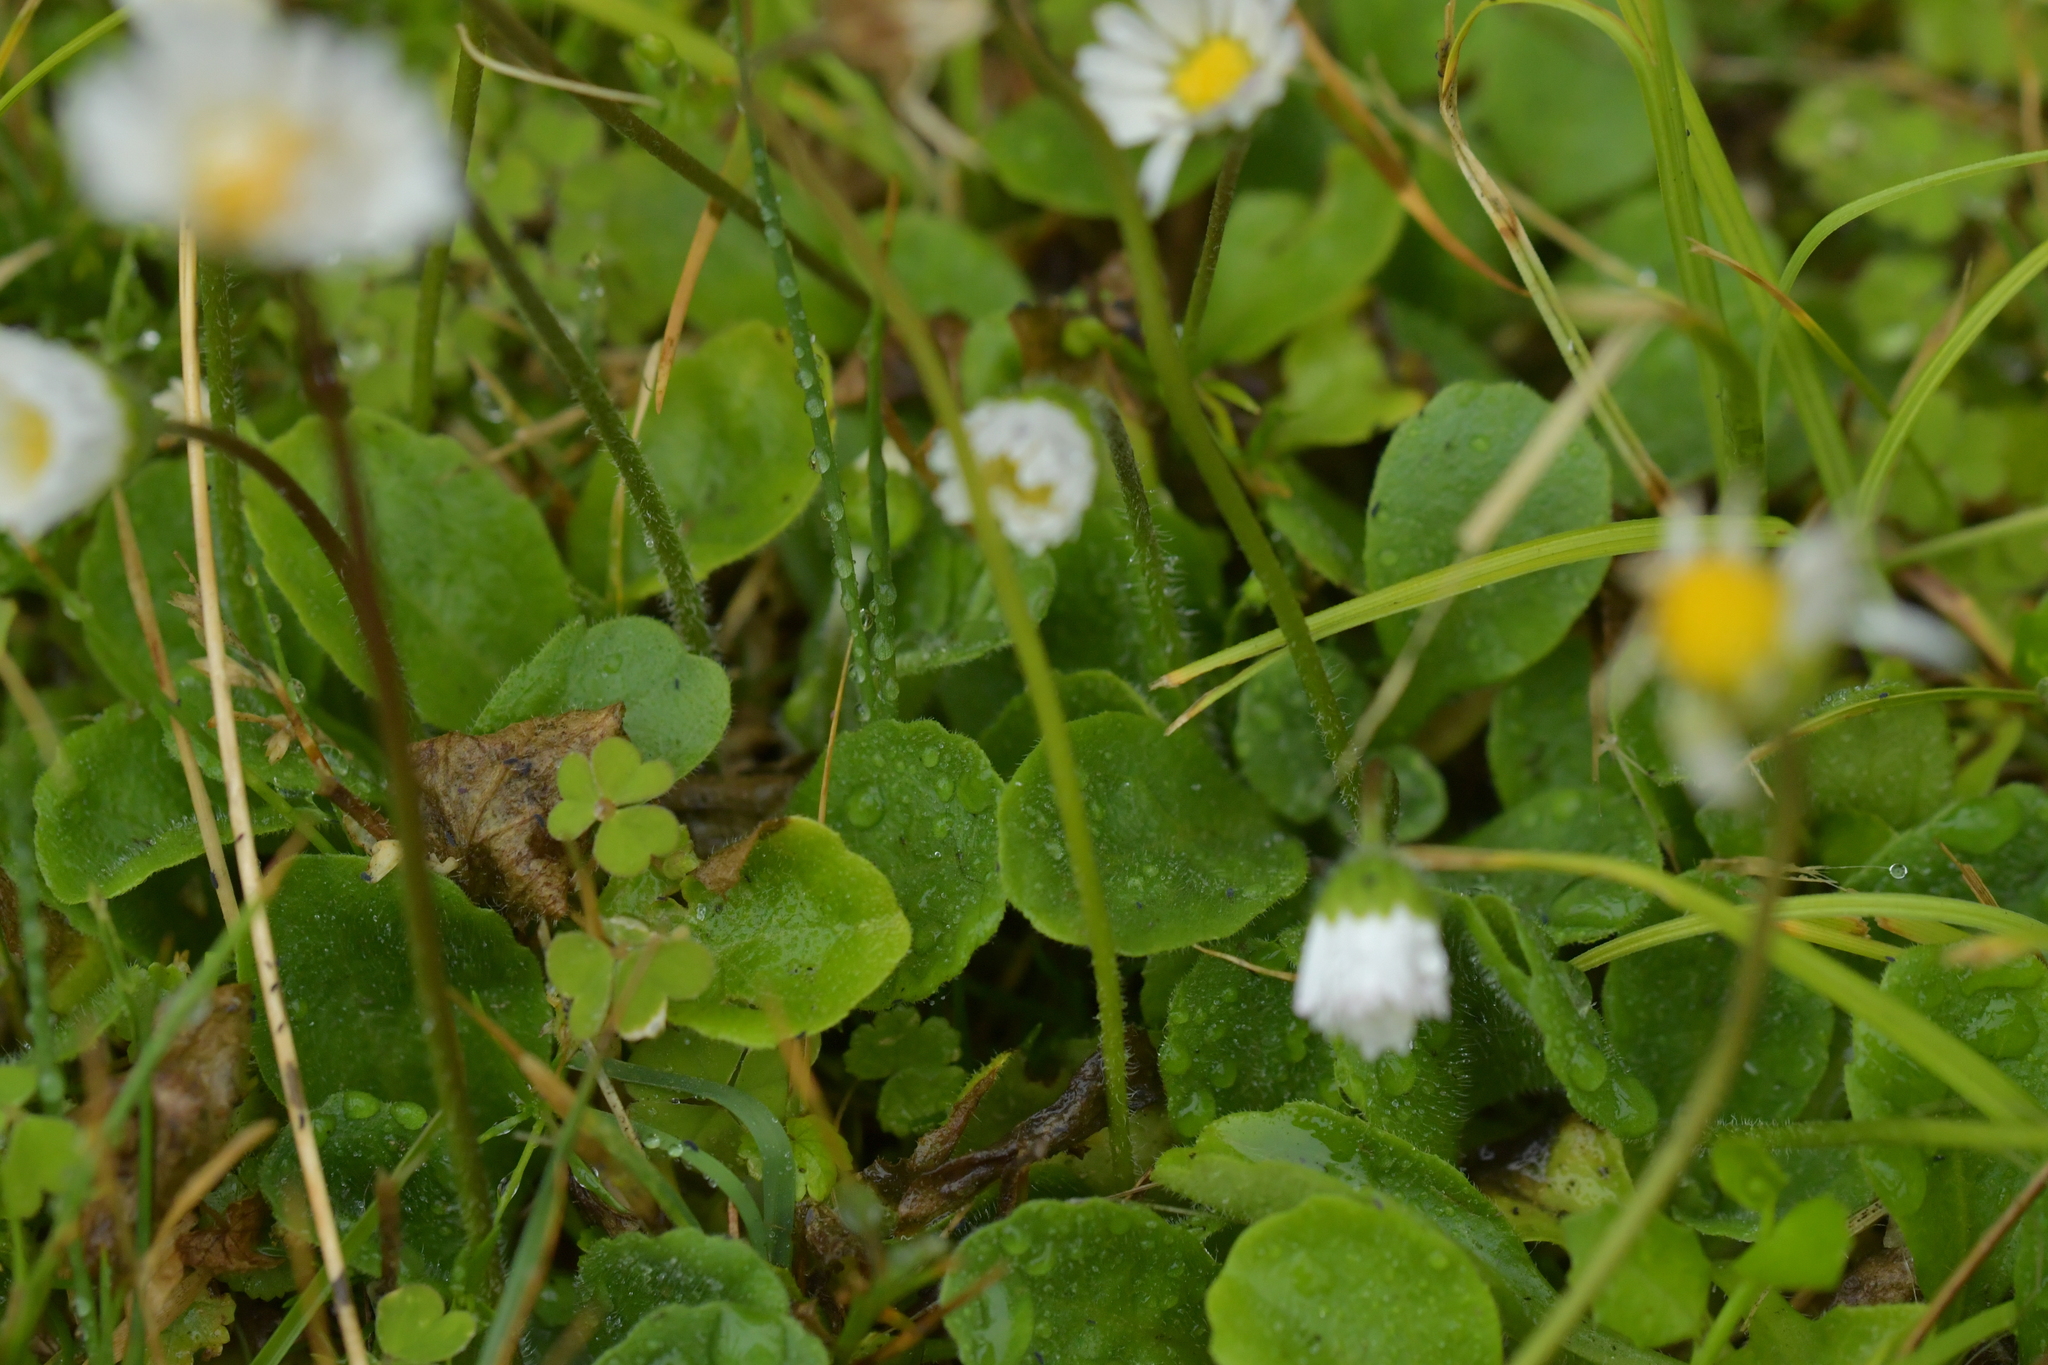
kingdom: Plantae
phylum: Tracheophyta
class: Magnoliopsida
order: Asterales
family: Asteraceae
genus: Bellis
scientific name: Bellis perennis
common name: Lawndaisy
